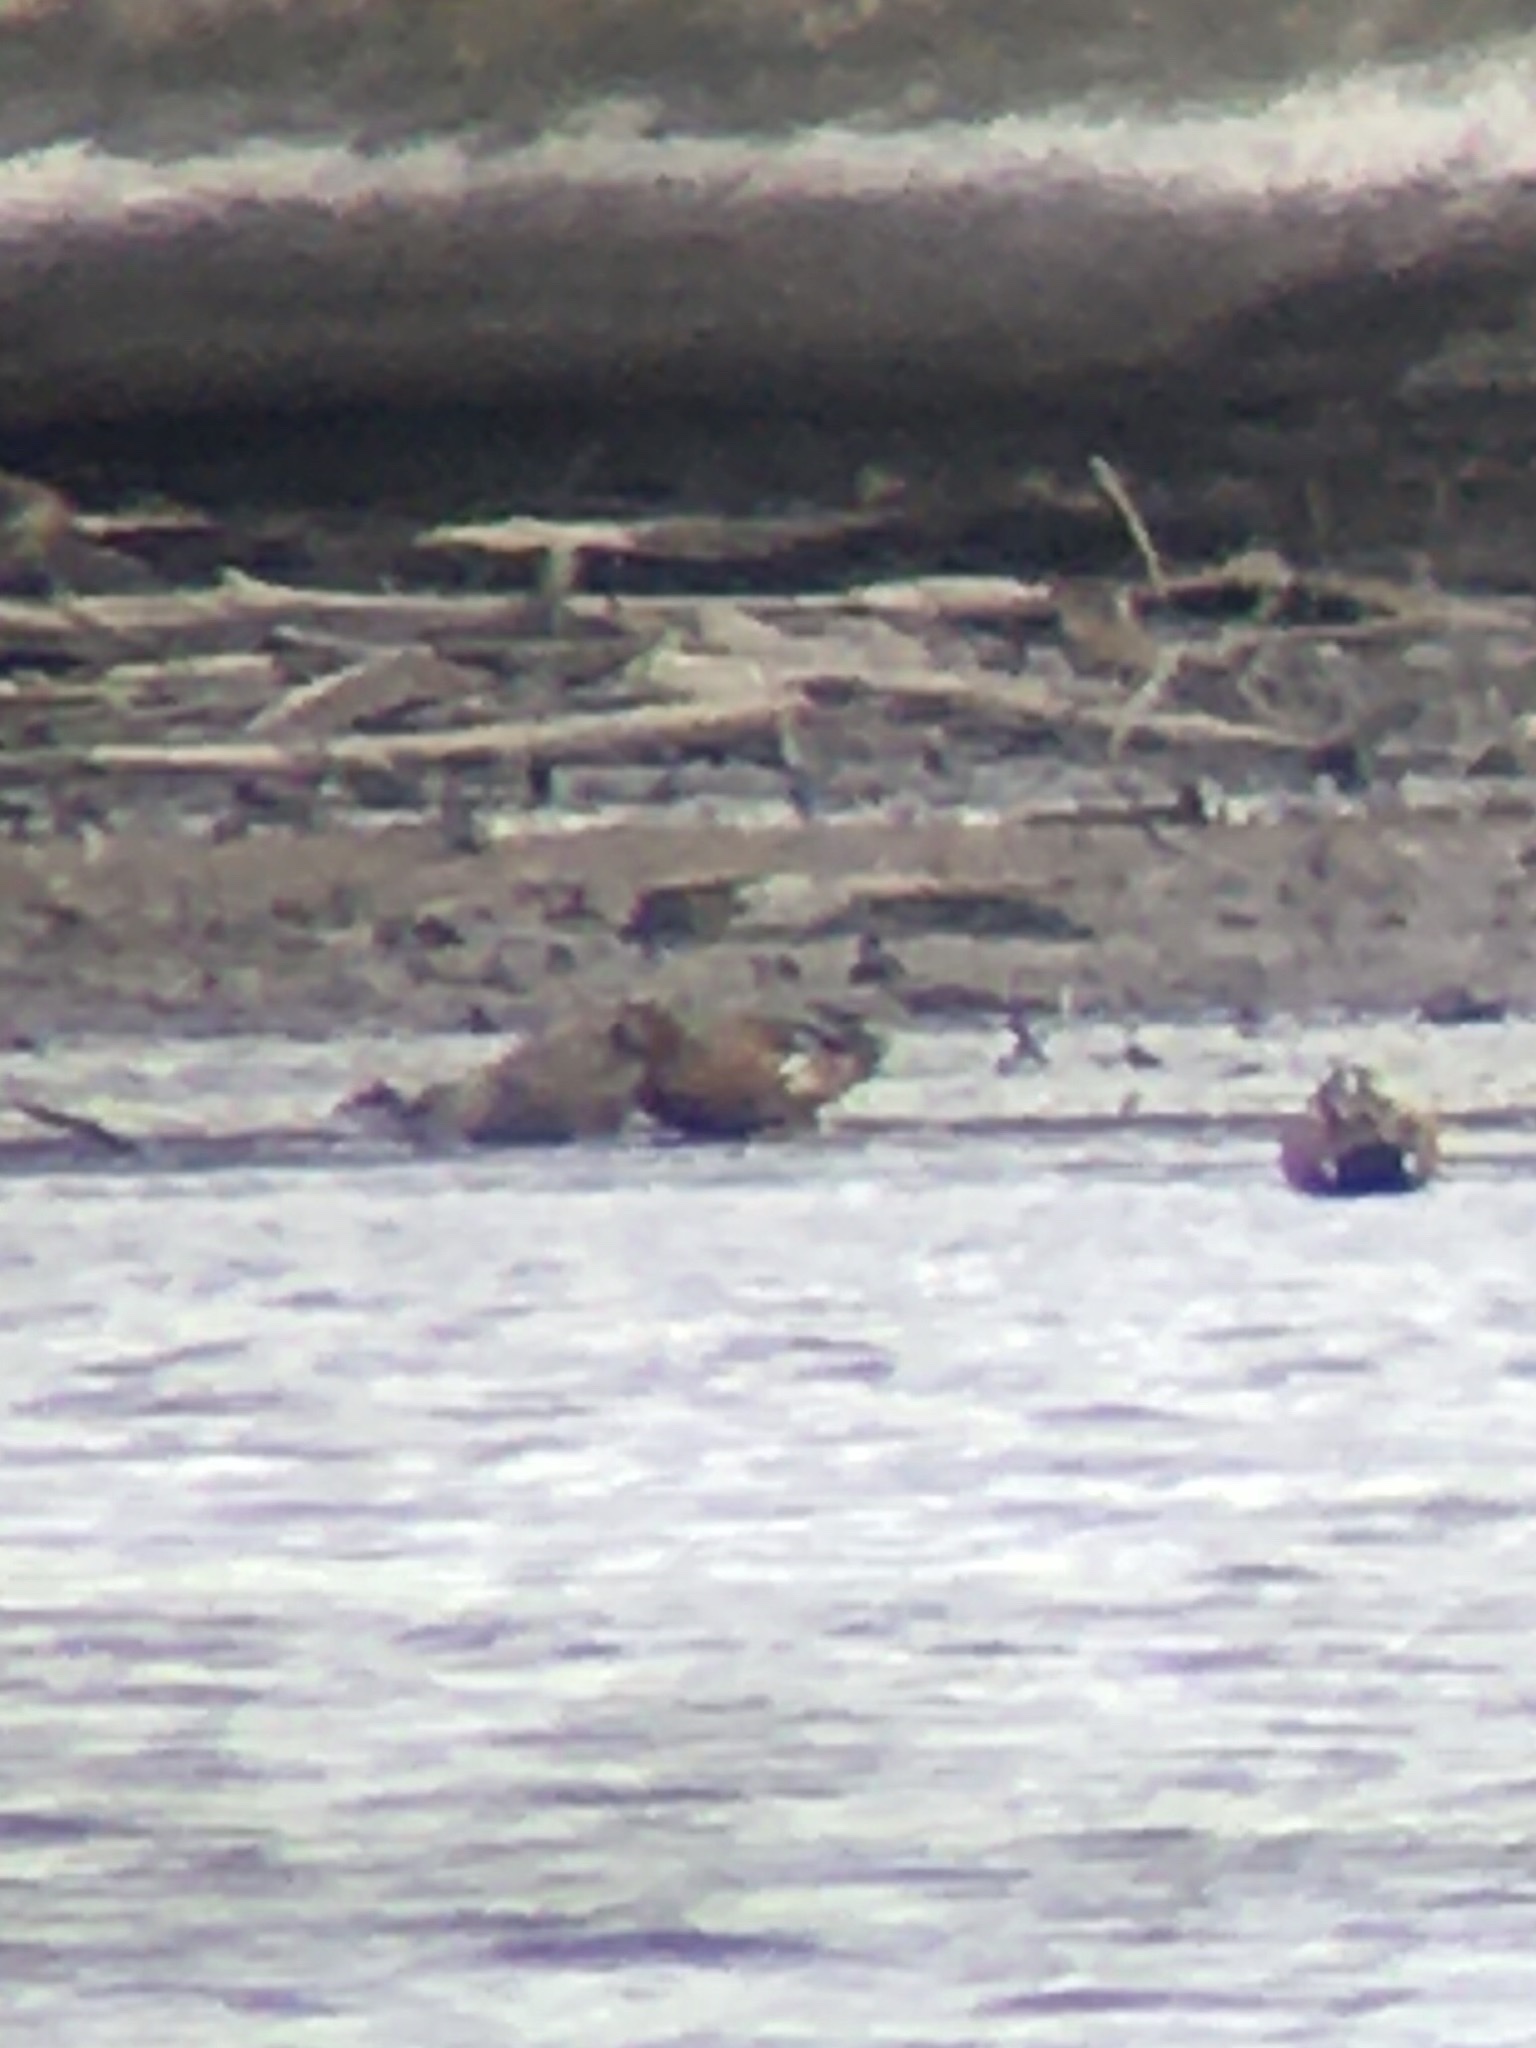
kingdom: Animalia
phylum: Chordata
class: Aves
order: Anseriformes
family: Anatidae
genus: Spatula
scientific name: Spatula
